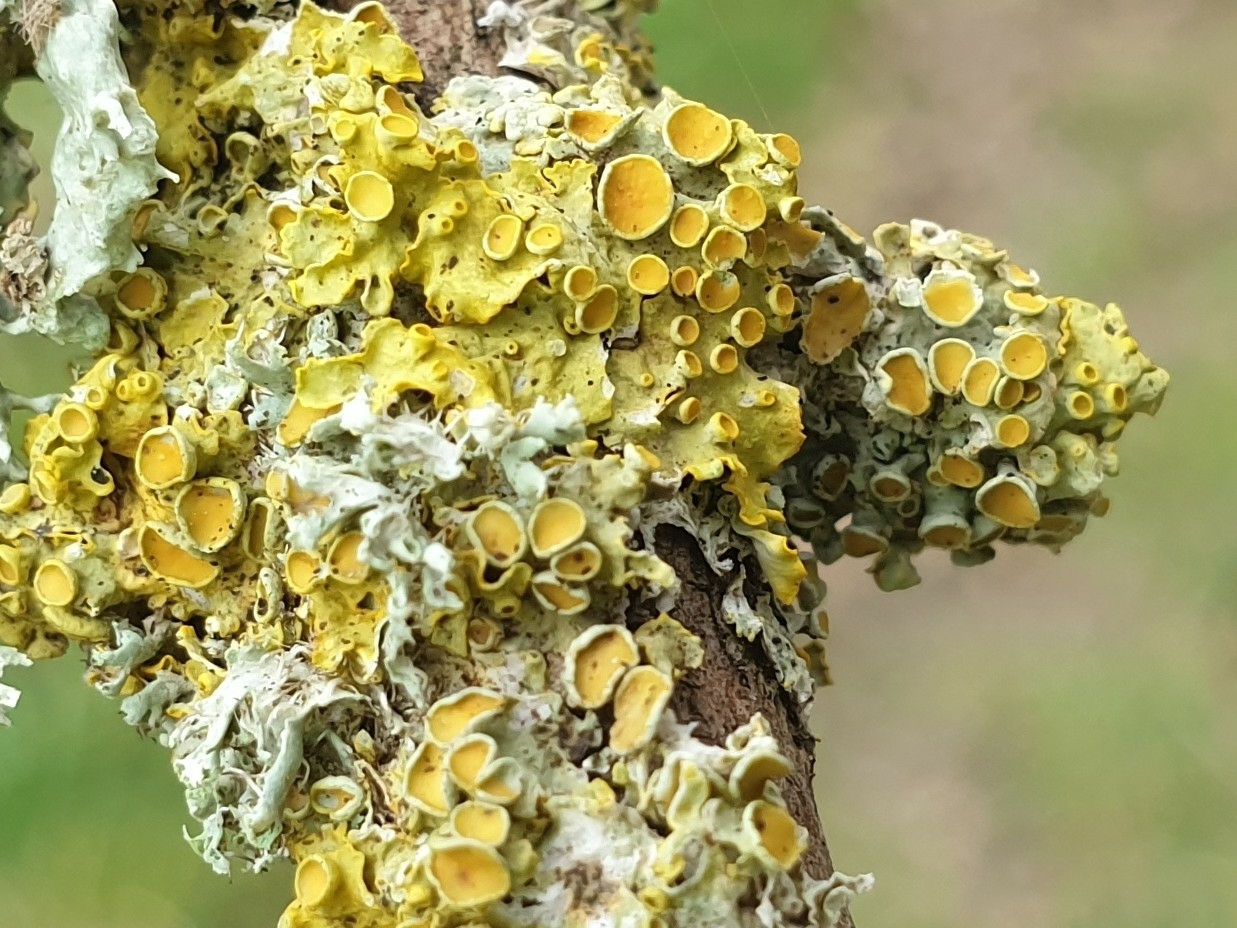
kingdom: Fungi
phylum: Ascomycota
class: Lecanoromycetes
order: Teloschistales
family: Teloschistaceae
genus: Xanthoria
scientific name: Xanthoria parietina
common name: Common orange lichen
